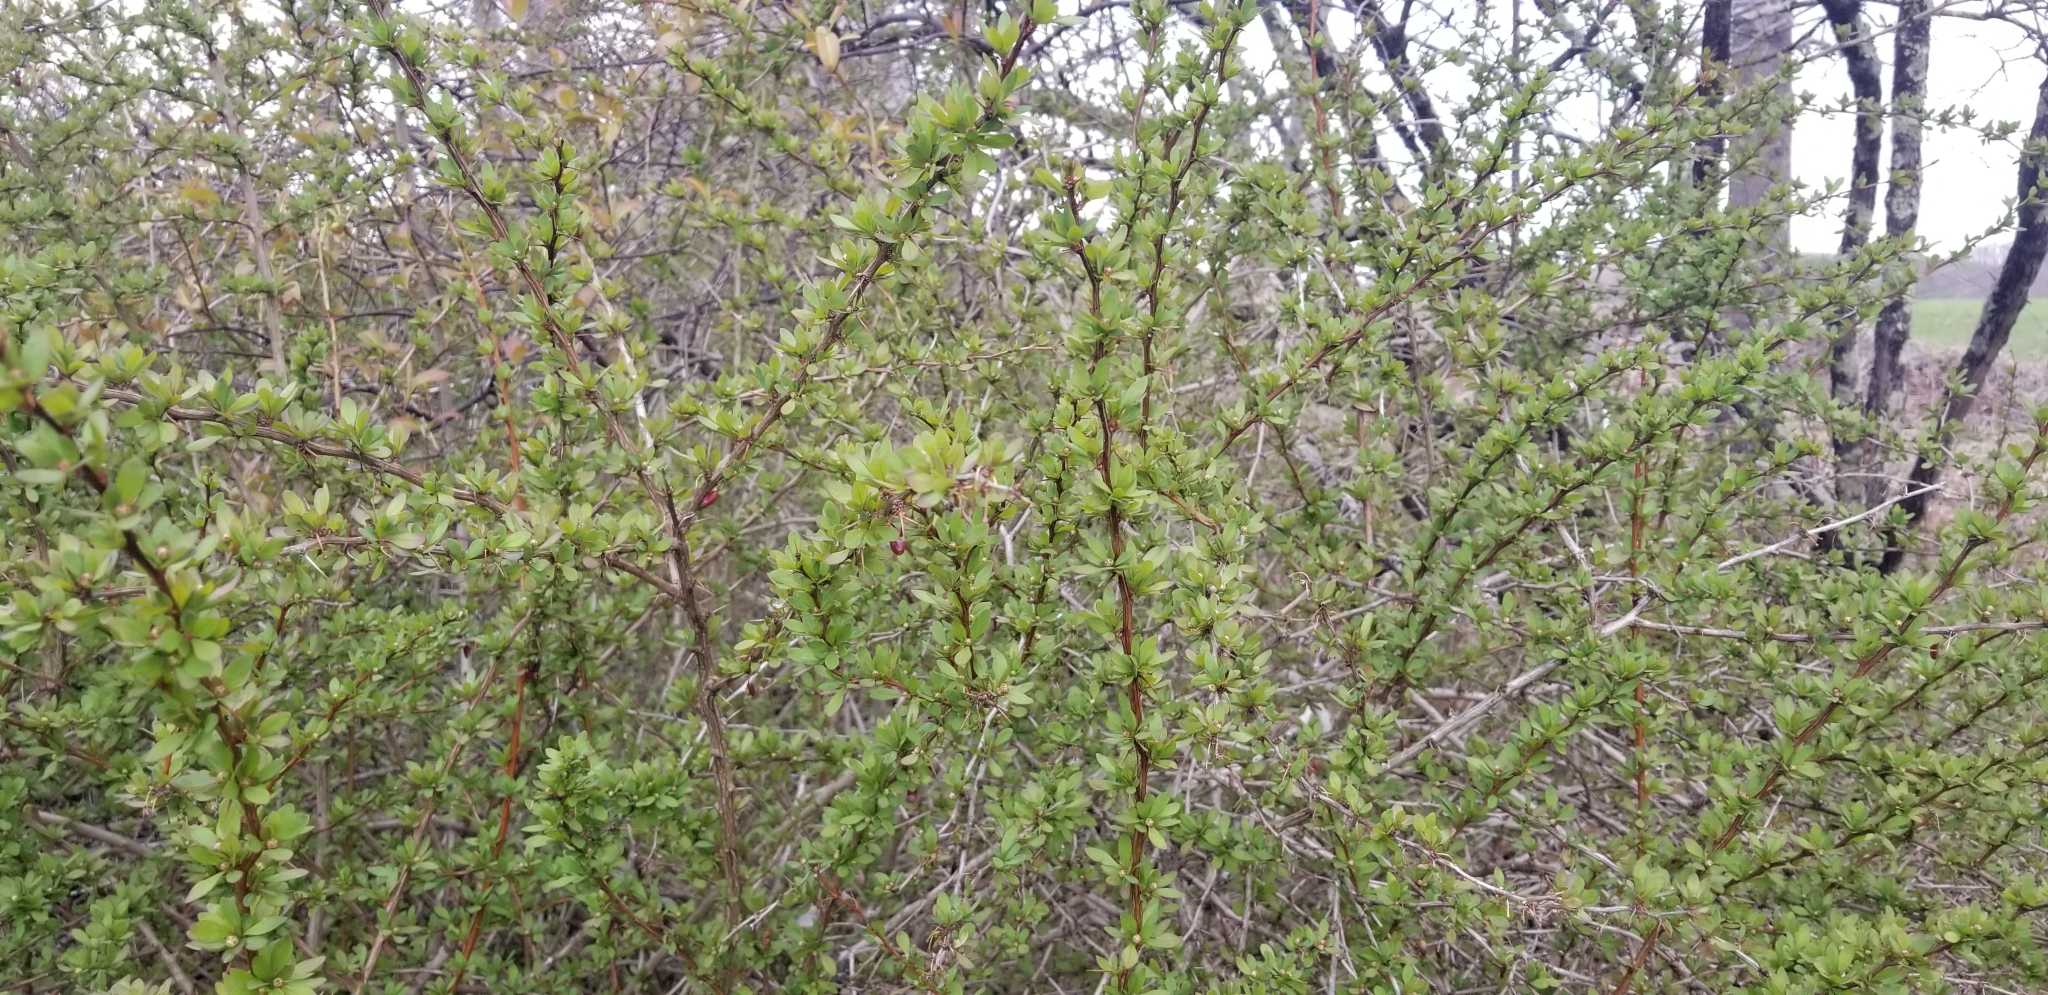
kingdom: Plantae
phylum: Tracheophyta
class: Magnoliopsida
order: Ranunculales
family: Berberidaceae
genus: Berberis
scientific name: Berberis thunbergii
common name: Japanese barberry
